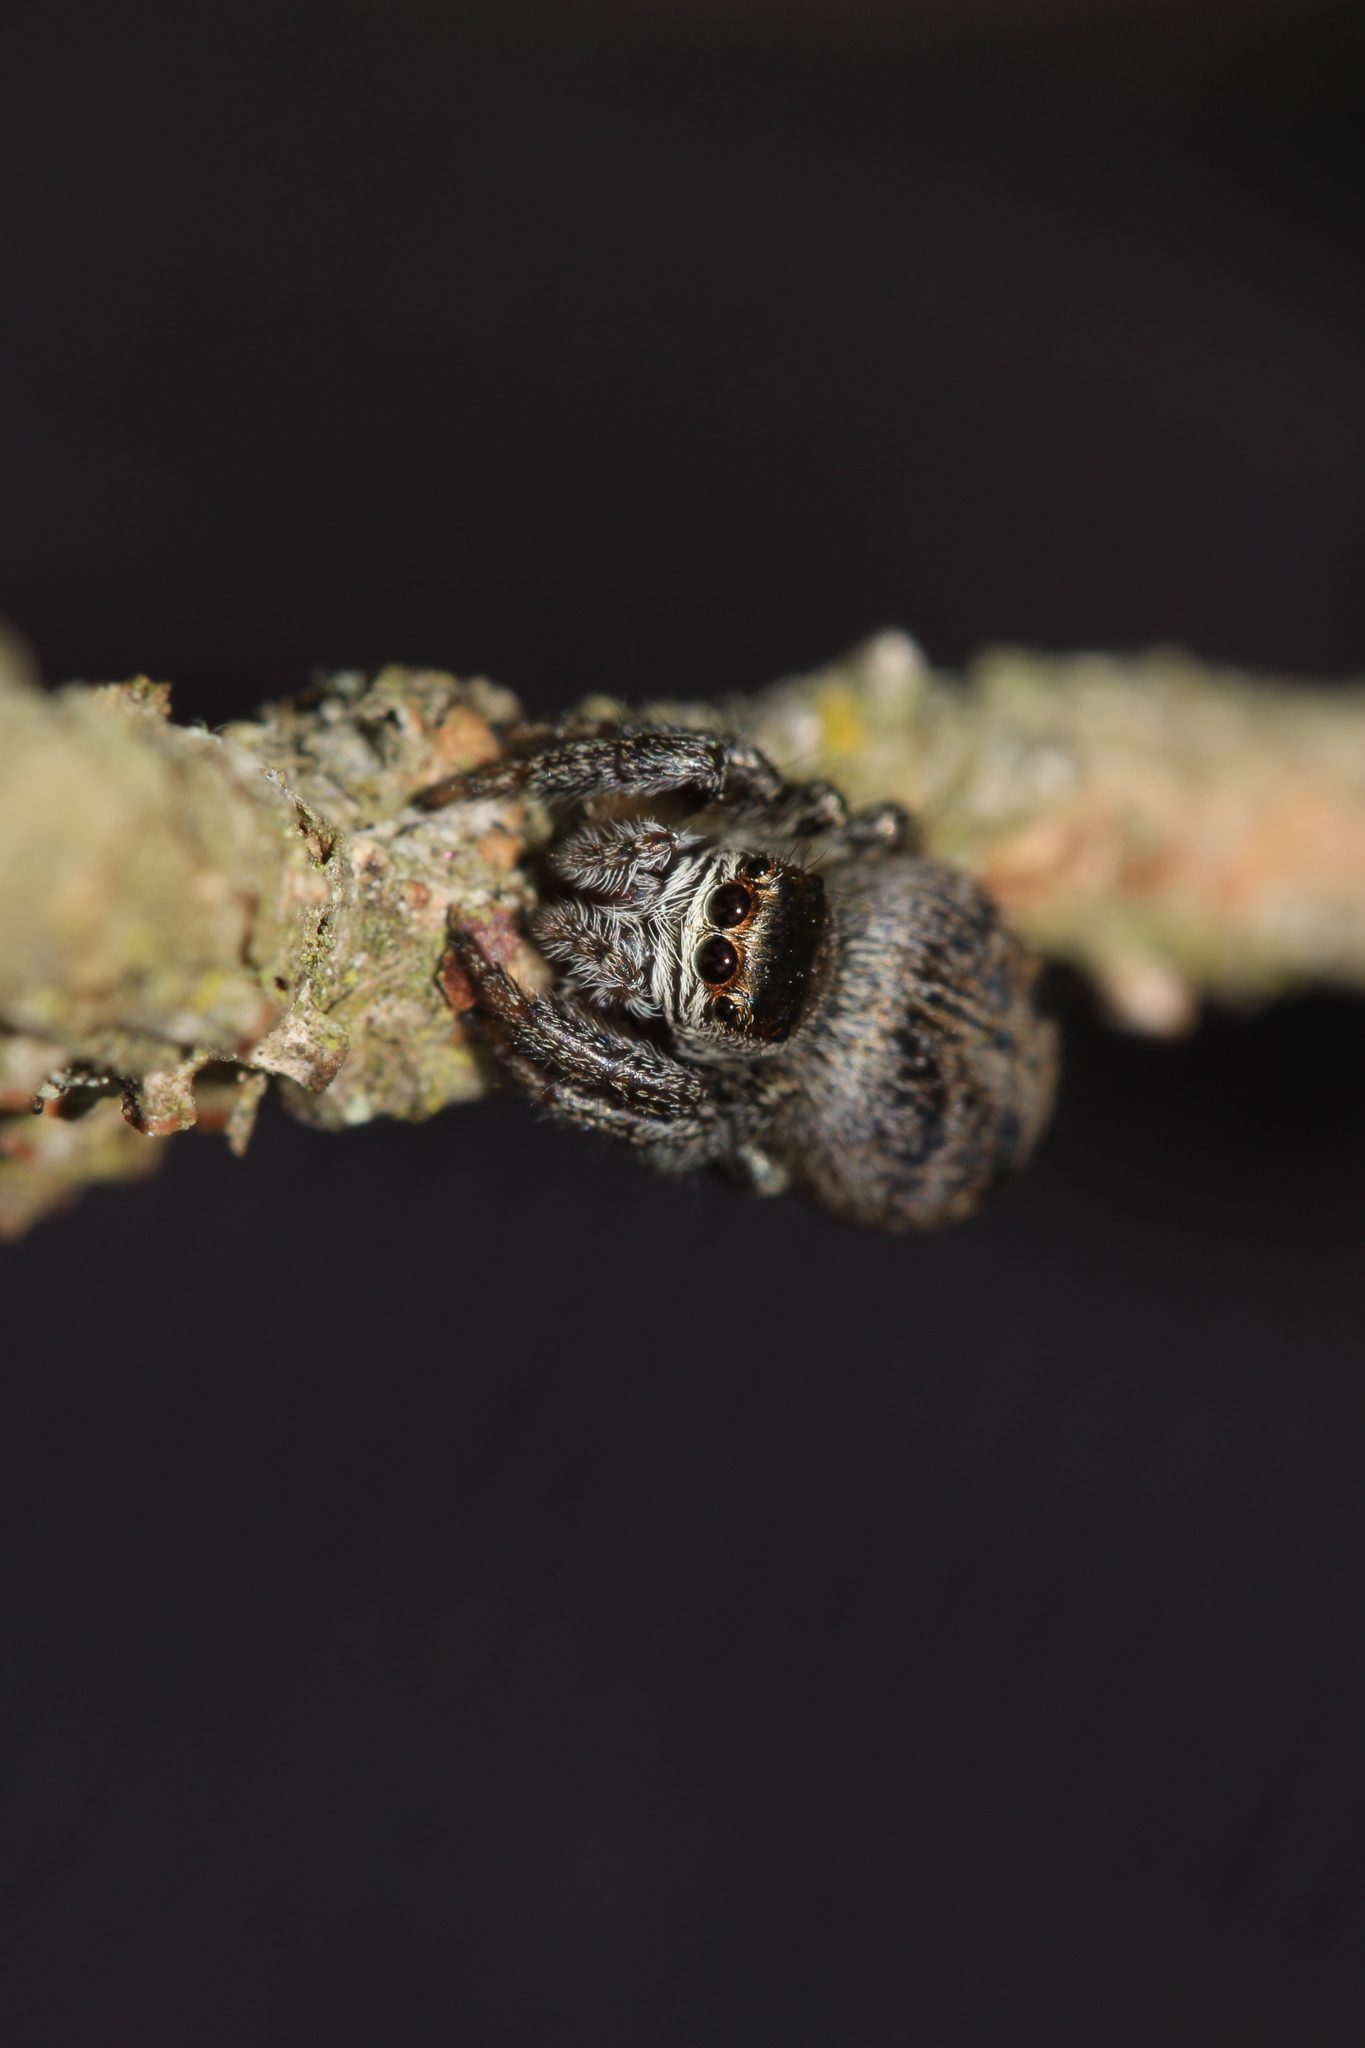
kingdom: Animalia
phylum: Arthropoda
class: Arachnida
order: Araneae
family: Salticidae
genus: Evarcha
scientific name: Evarcha arcuata
